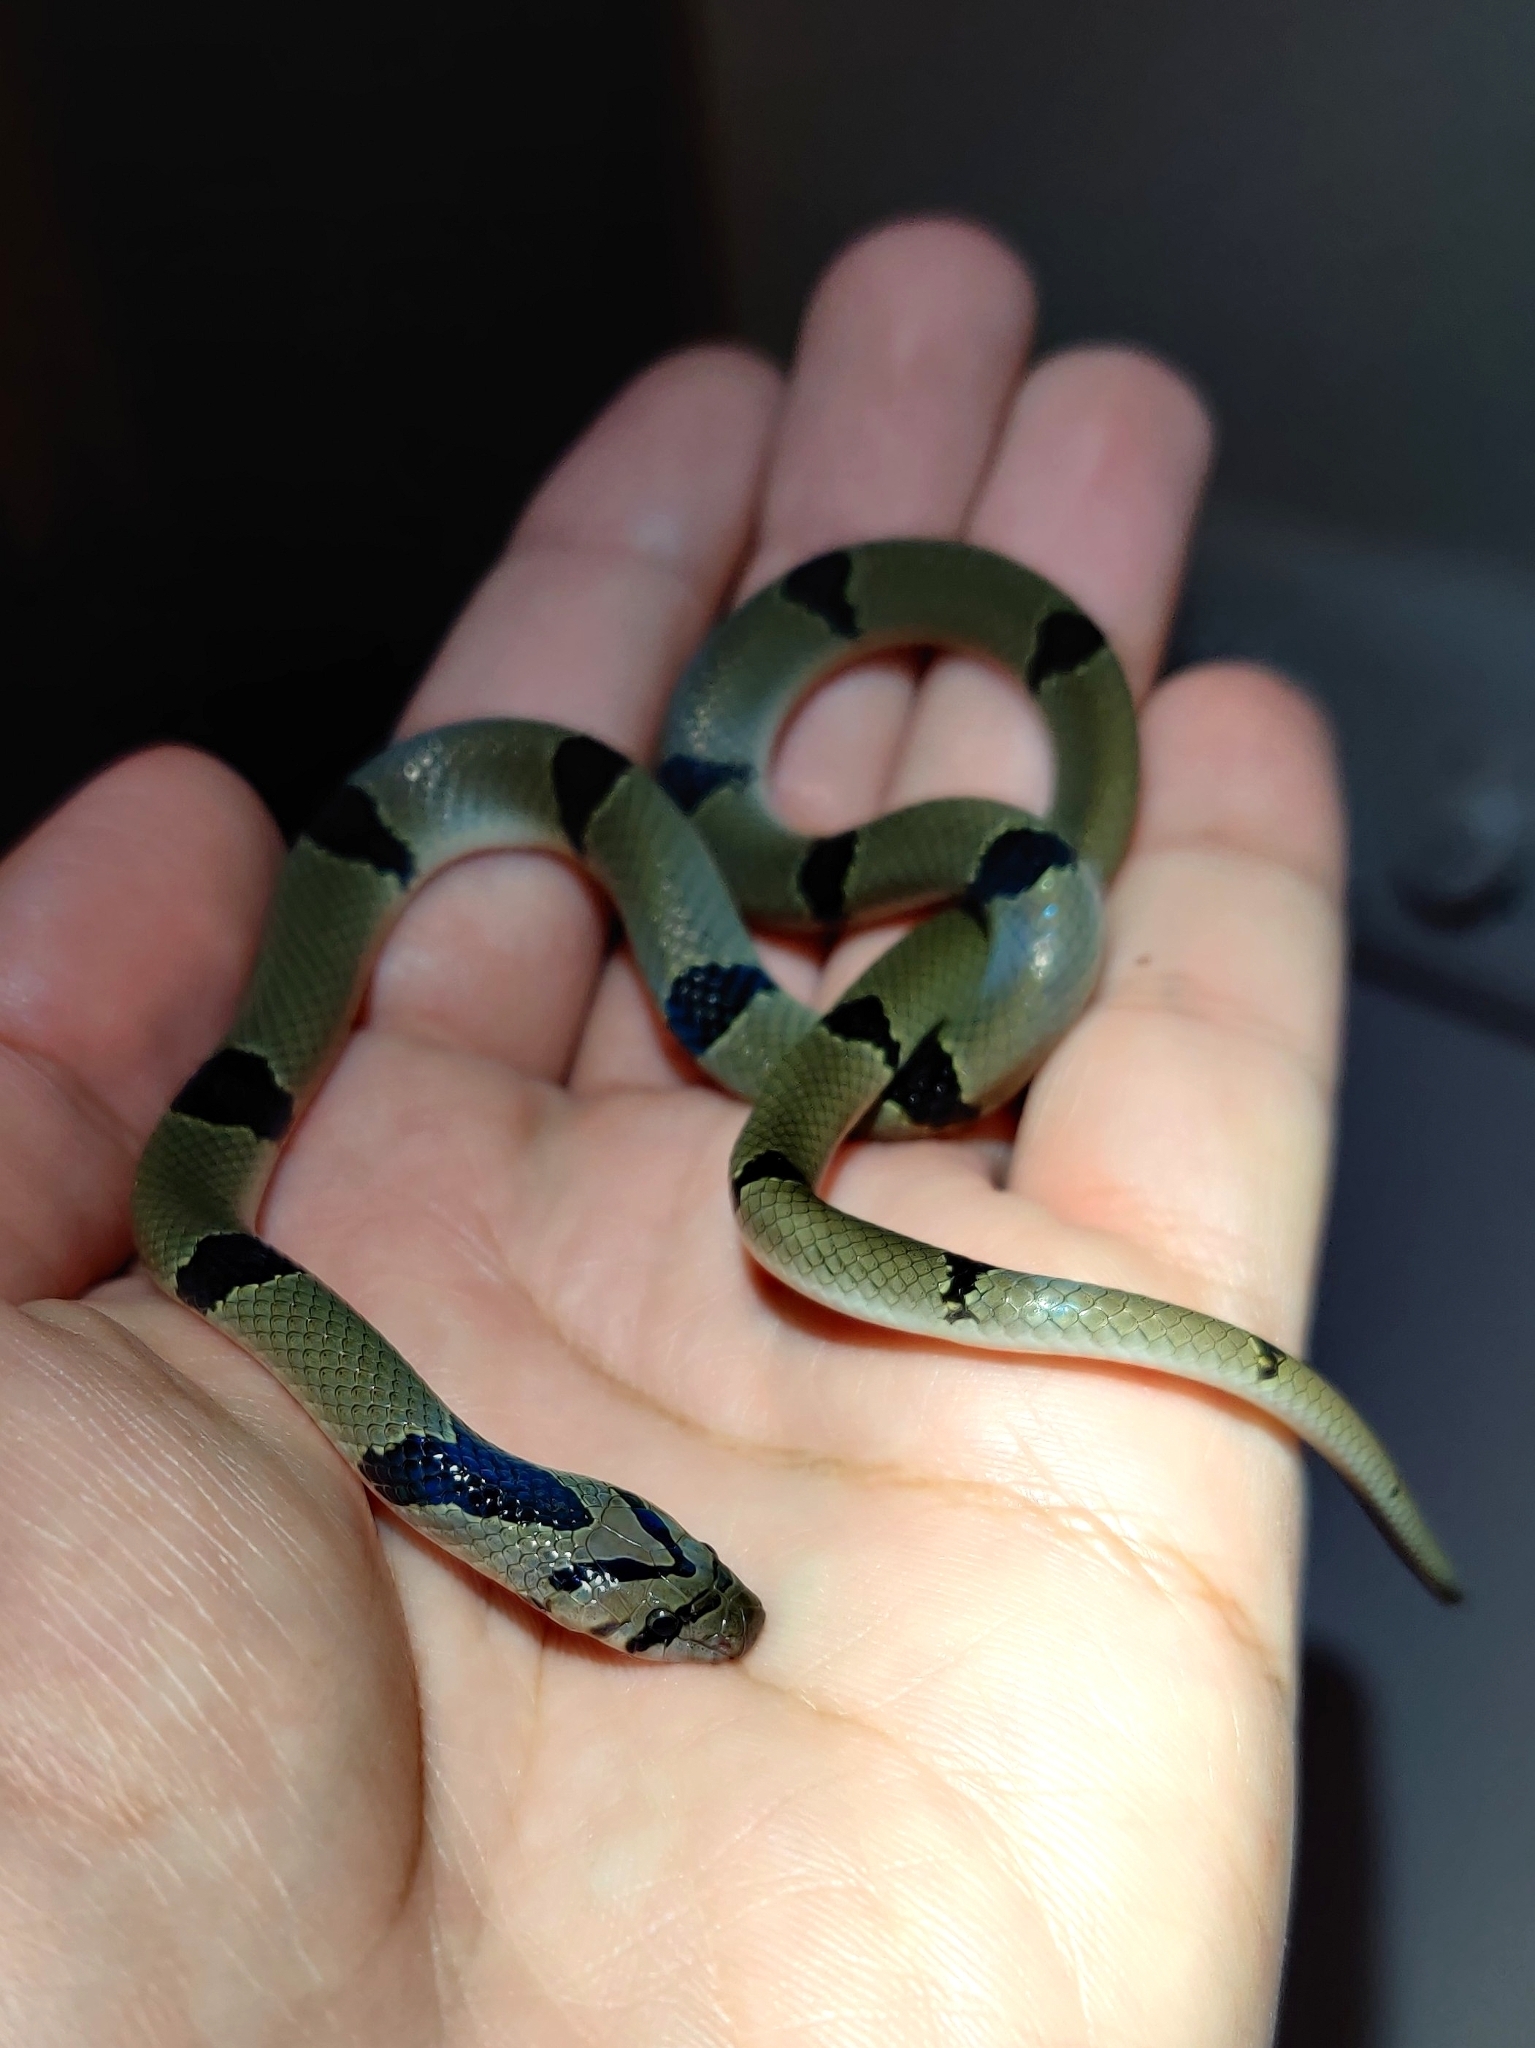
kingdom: Animalia
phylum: Chordata
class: Squamata
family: Colubridae
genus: Oligodon
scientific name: Oligodon arnensis
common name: Banded kukri
